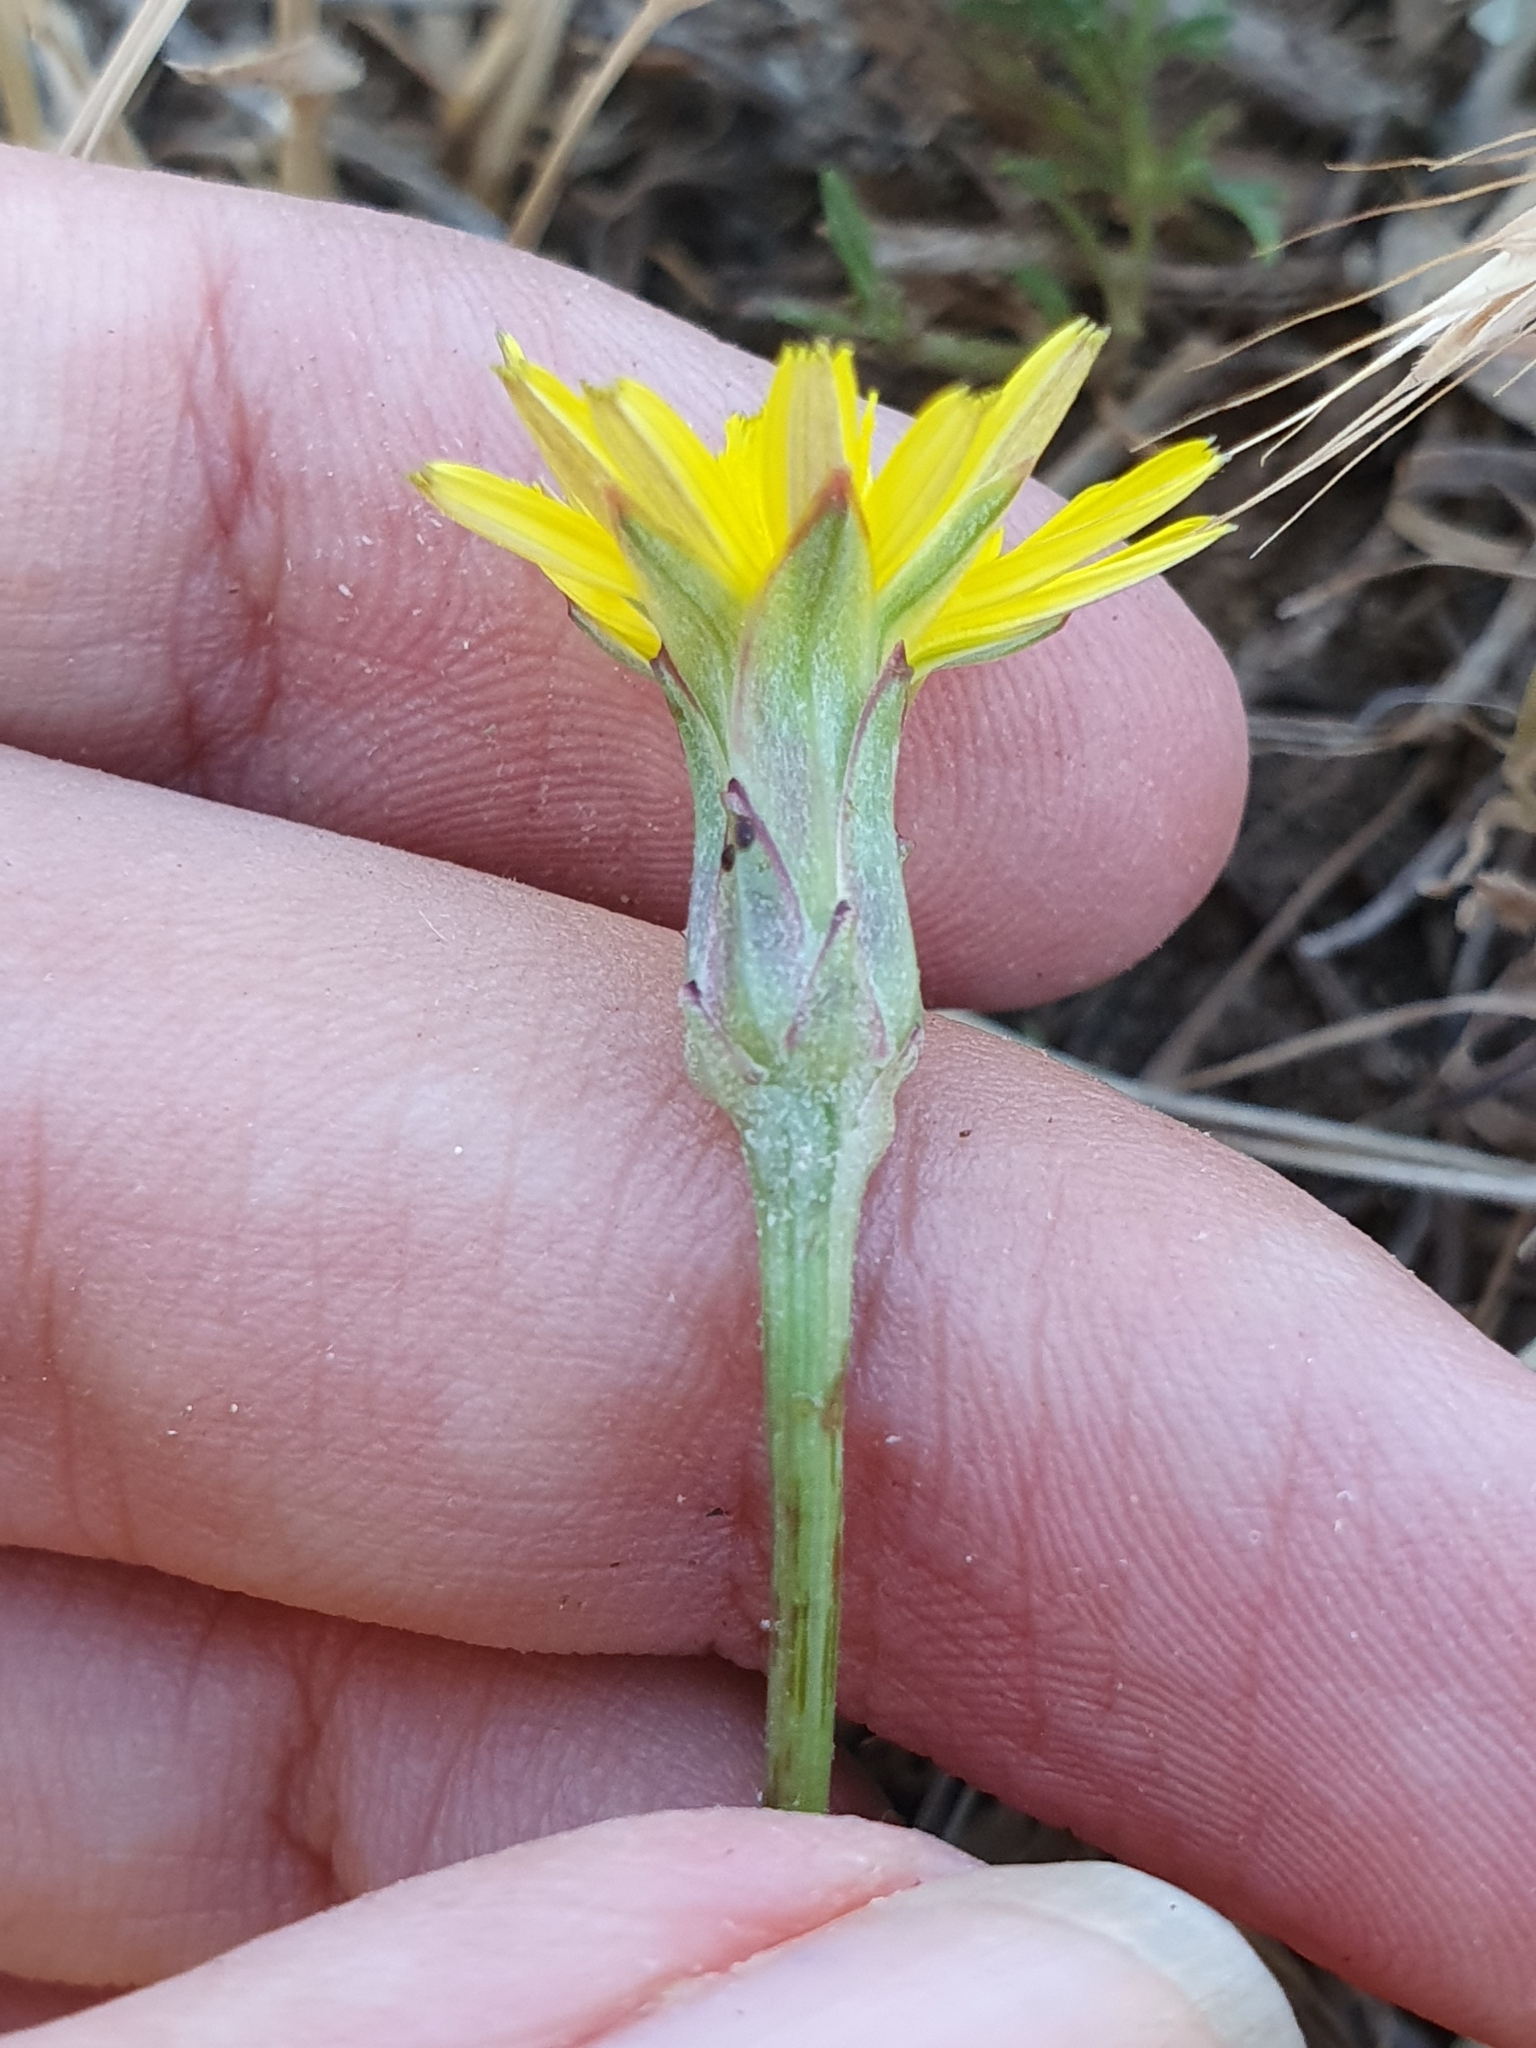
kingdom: Plantae
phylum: Tracheophyta
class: Magnoliopsida
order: Asterales
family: Asteraceae
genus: Pseudopodospermum
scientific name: Pseudopodospermum brevicaule
